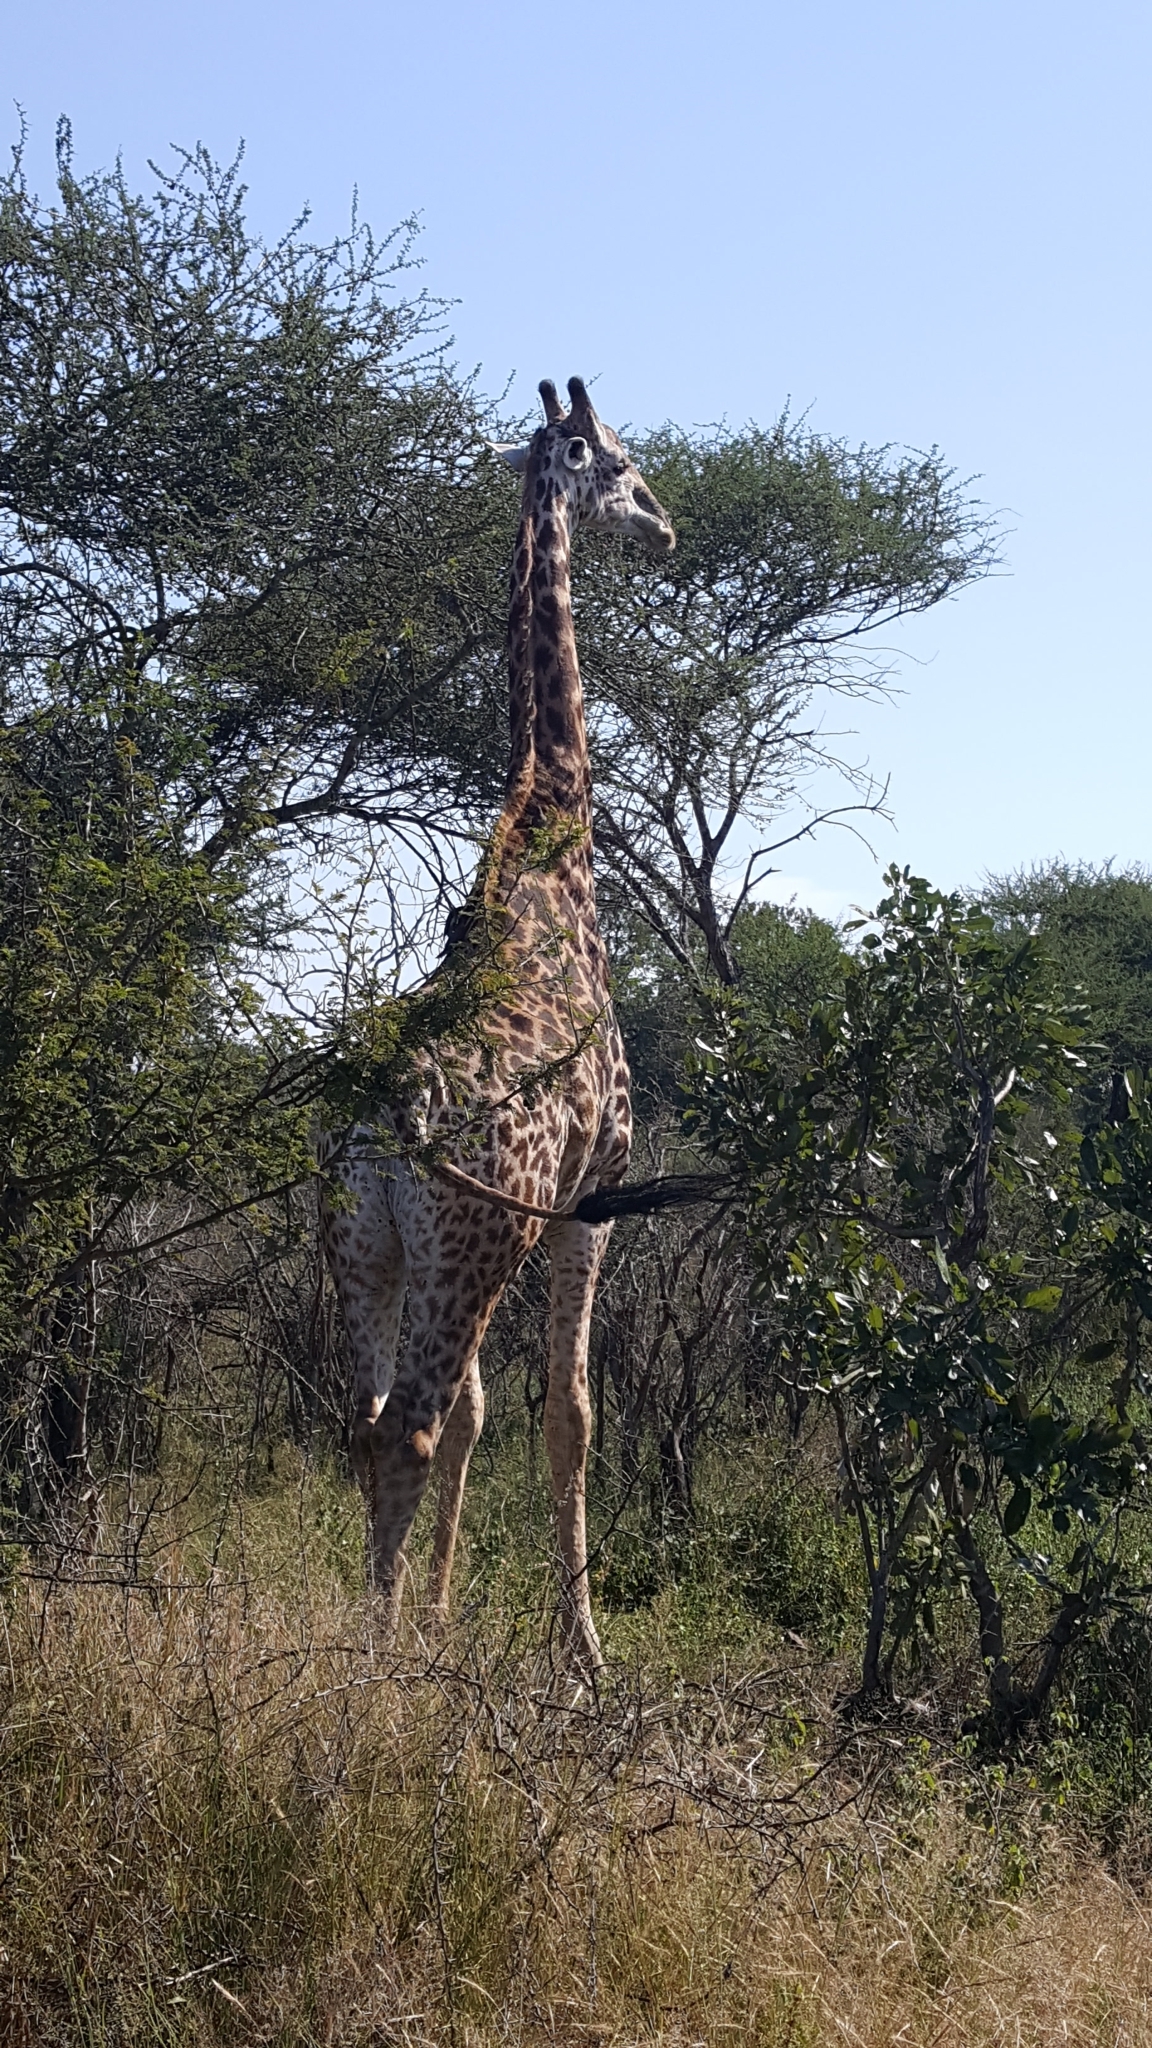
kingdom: Animalia
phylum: Chordata
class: Mammalia
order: Artiodactyla
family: Giraffidae
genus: Giraffa
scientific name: Giraffa giraffa
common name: Southern giraffe
